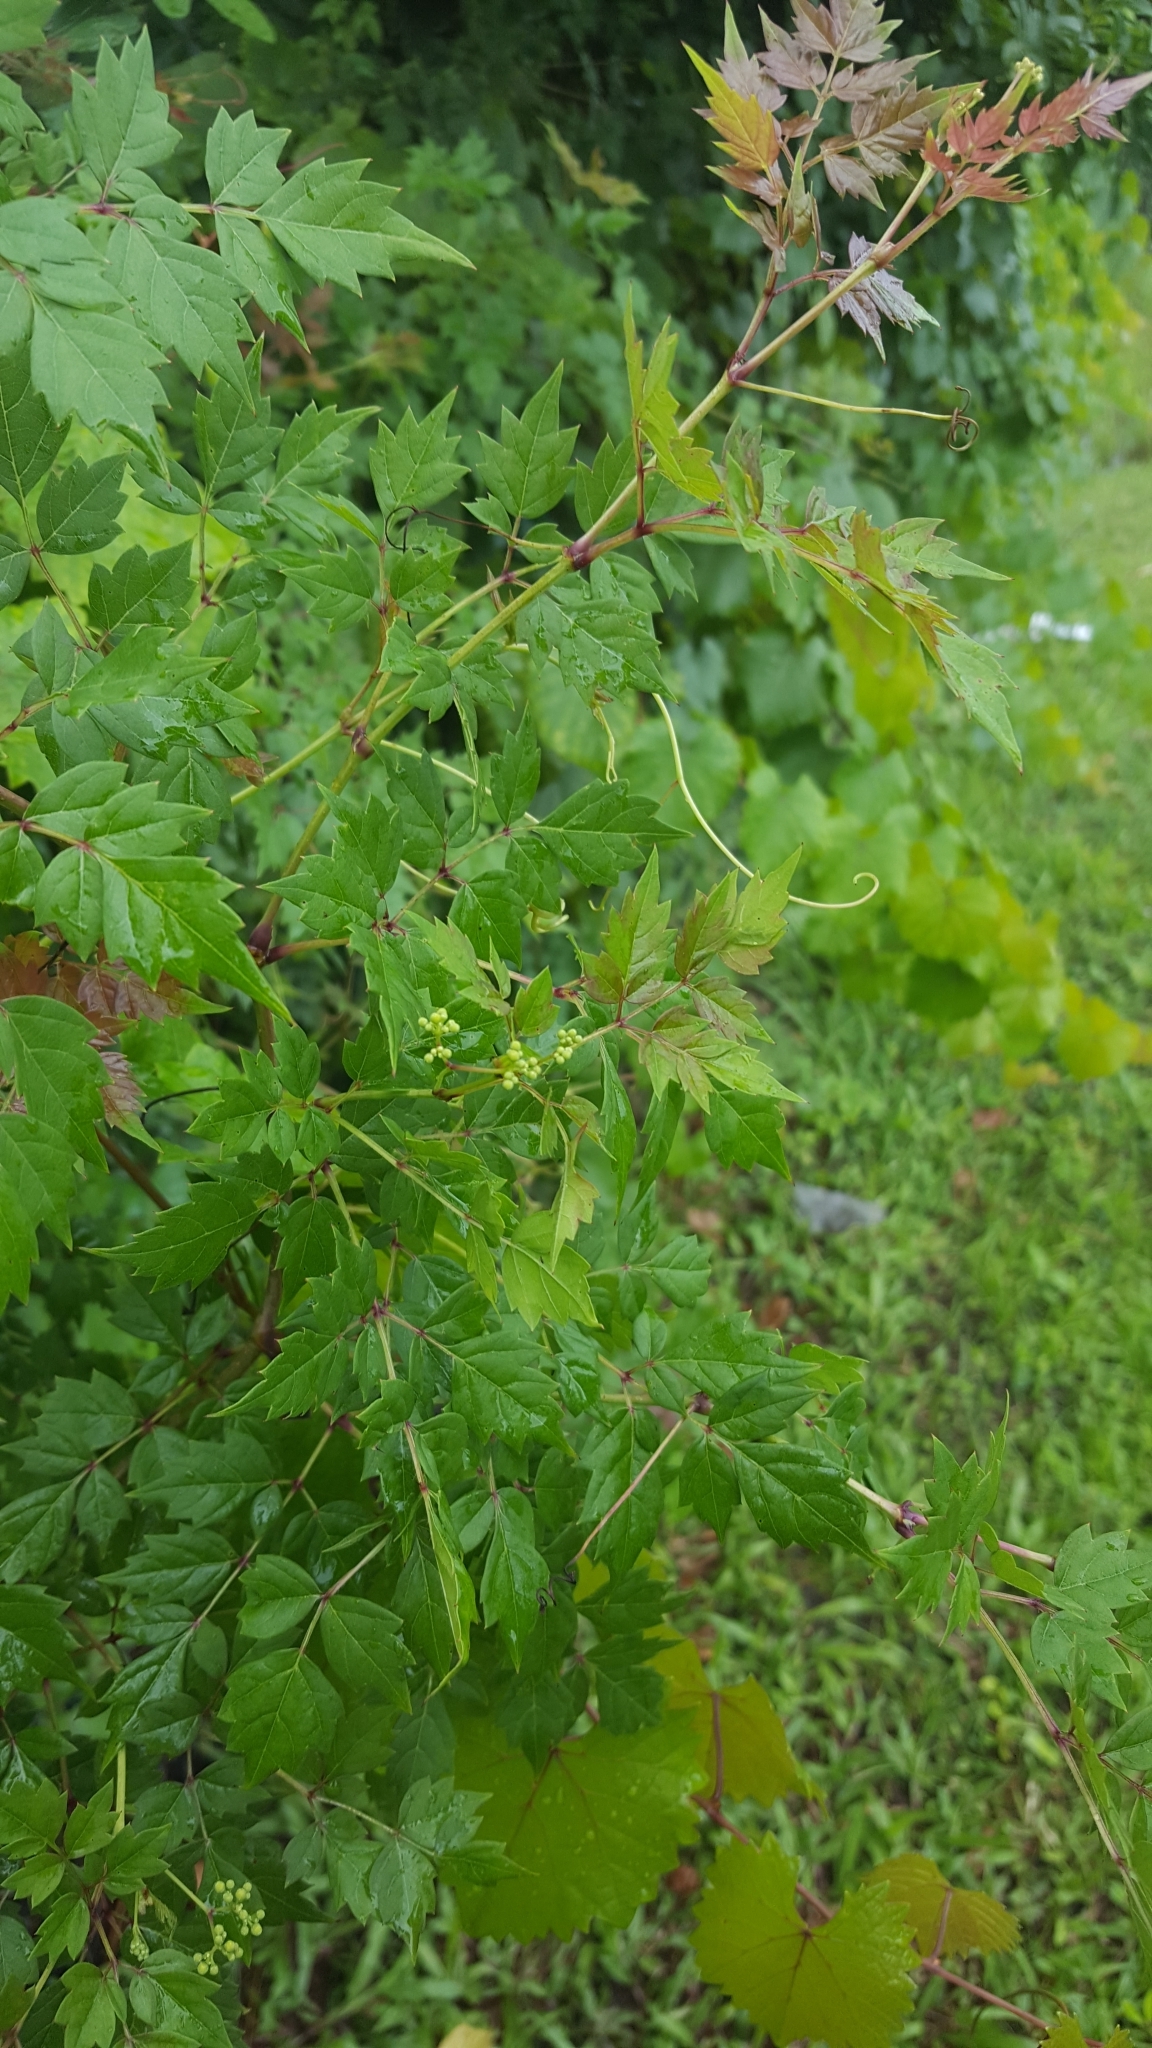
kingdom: Plantae
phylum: Tracheophyta
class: Magnoliopsida
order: Vitales
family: Vitaceae
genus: Nekemias
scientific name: Nekemias arborea
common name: Peppervine
